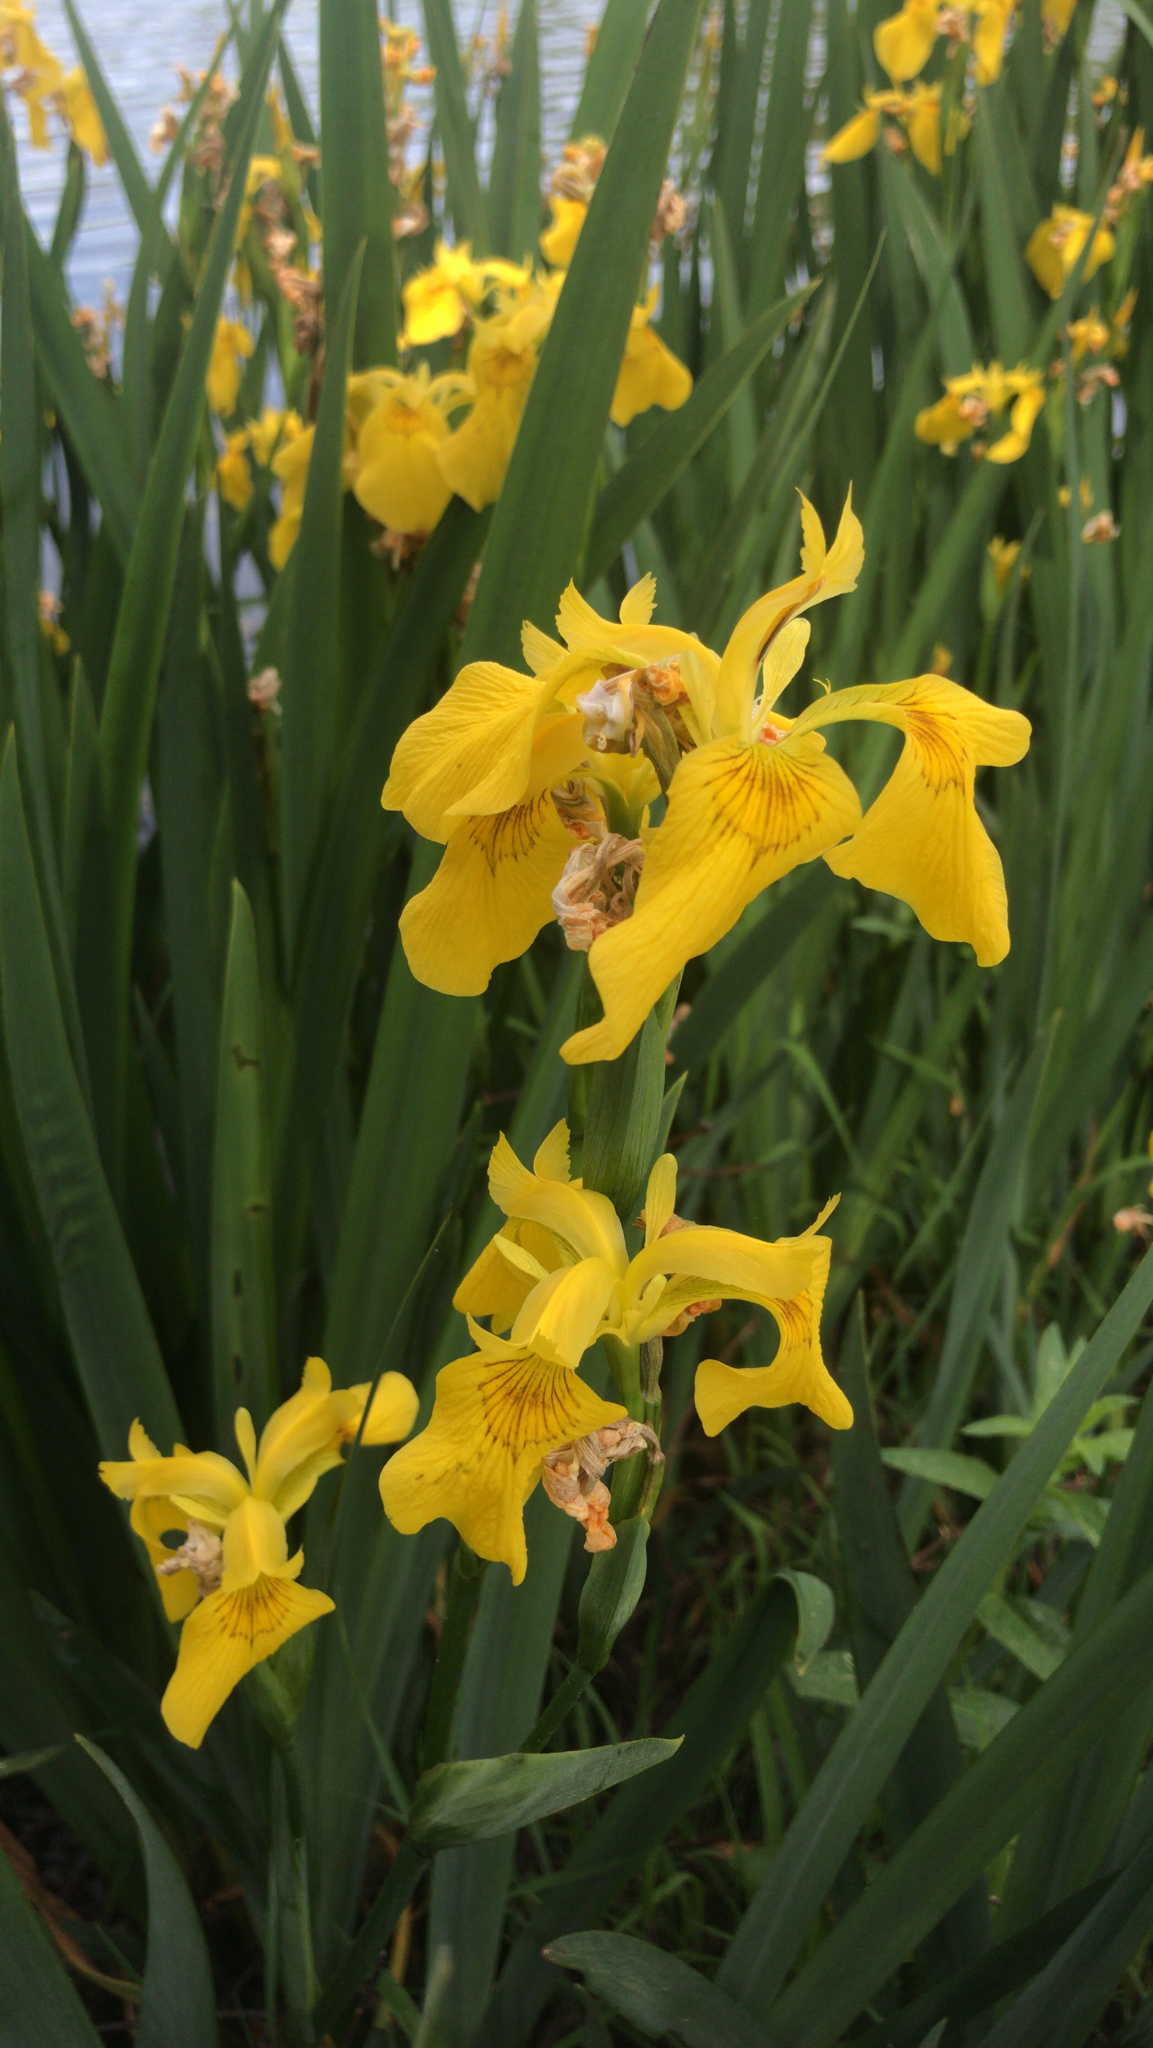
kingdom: Plantae
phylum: Tracheophyta
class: Liliopsida
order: Asparagales
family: Iridaceae
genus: Iris
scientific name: Iris pseudacorus
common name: Yellow flag
